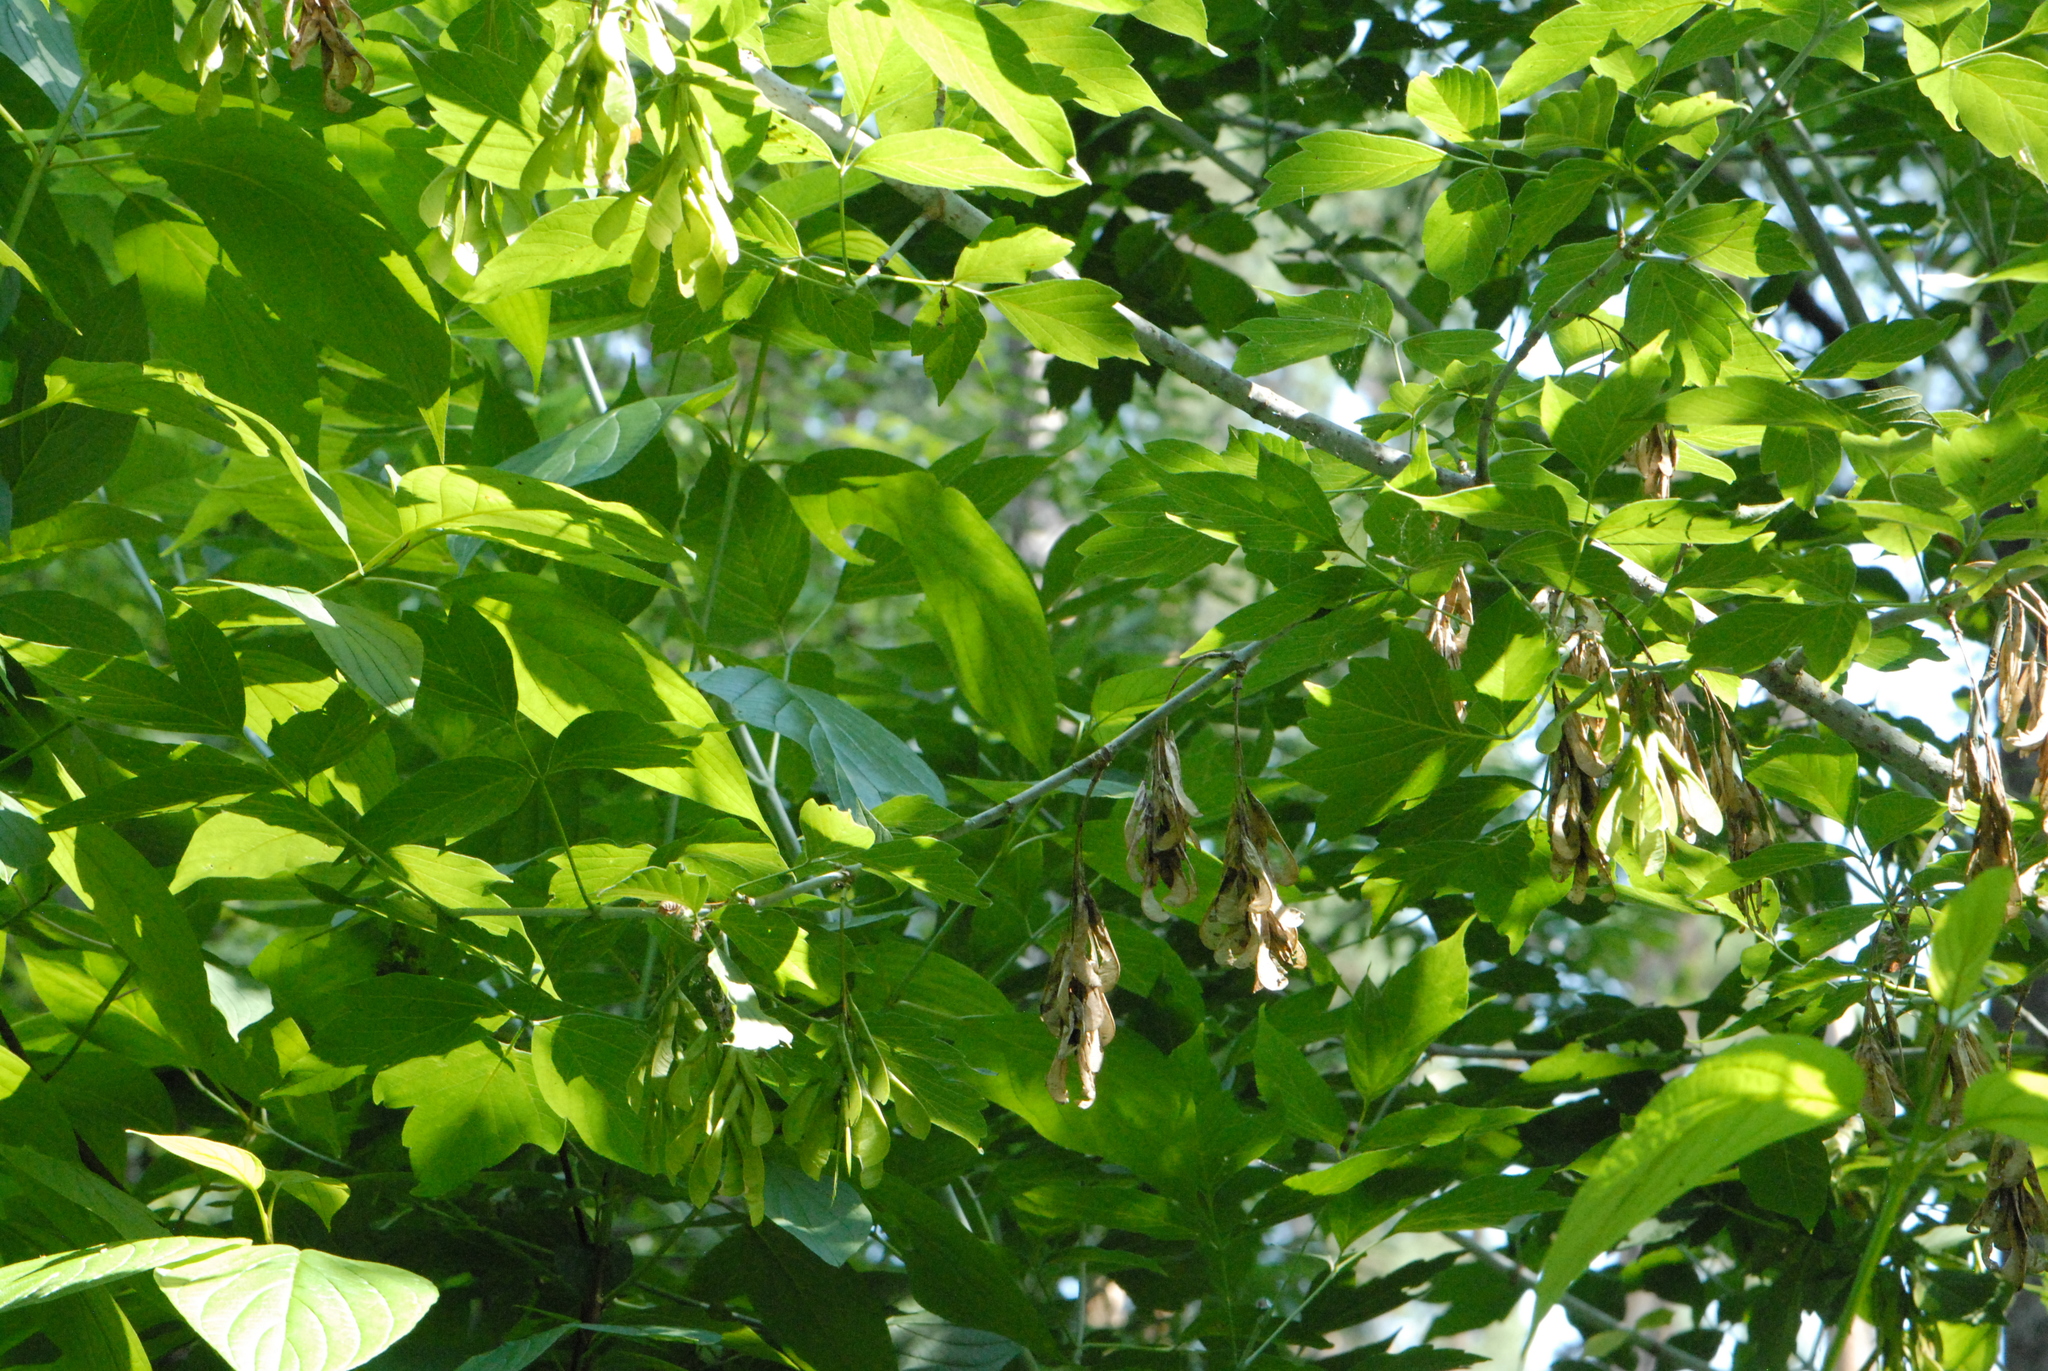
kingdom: Plantae
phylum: Tracheophyta
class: Magnoliopsida
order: Sapindales
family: Sapindaceae
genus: Acer
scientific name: Acer negundo
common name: Ashleaf maple
